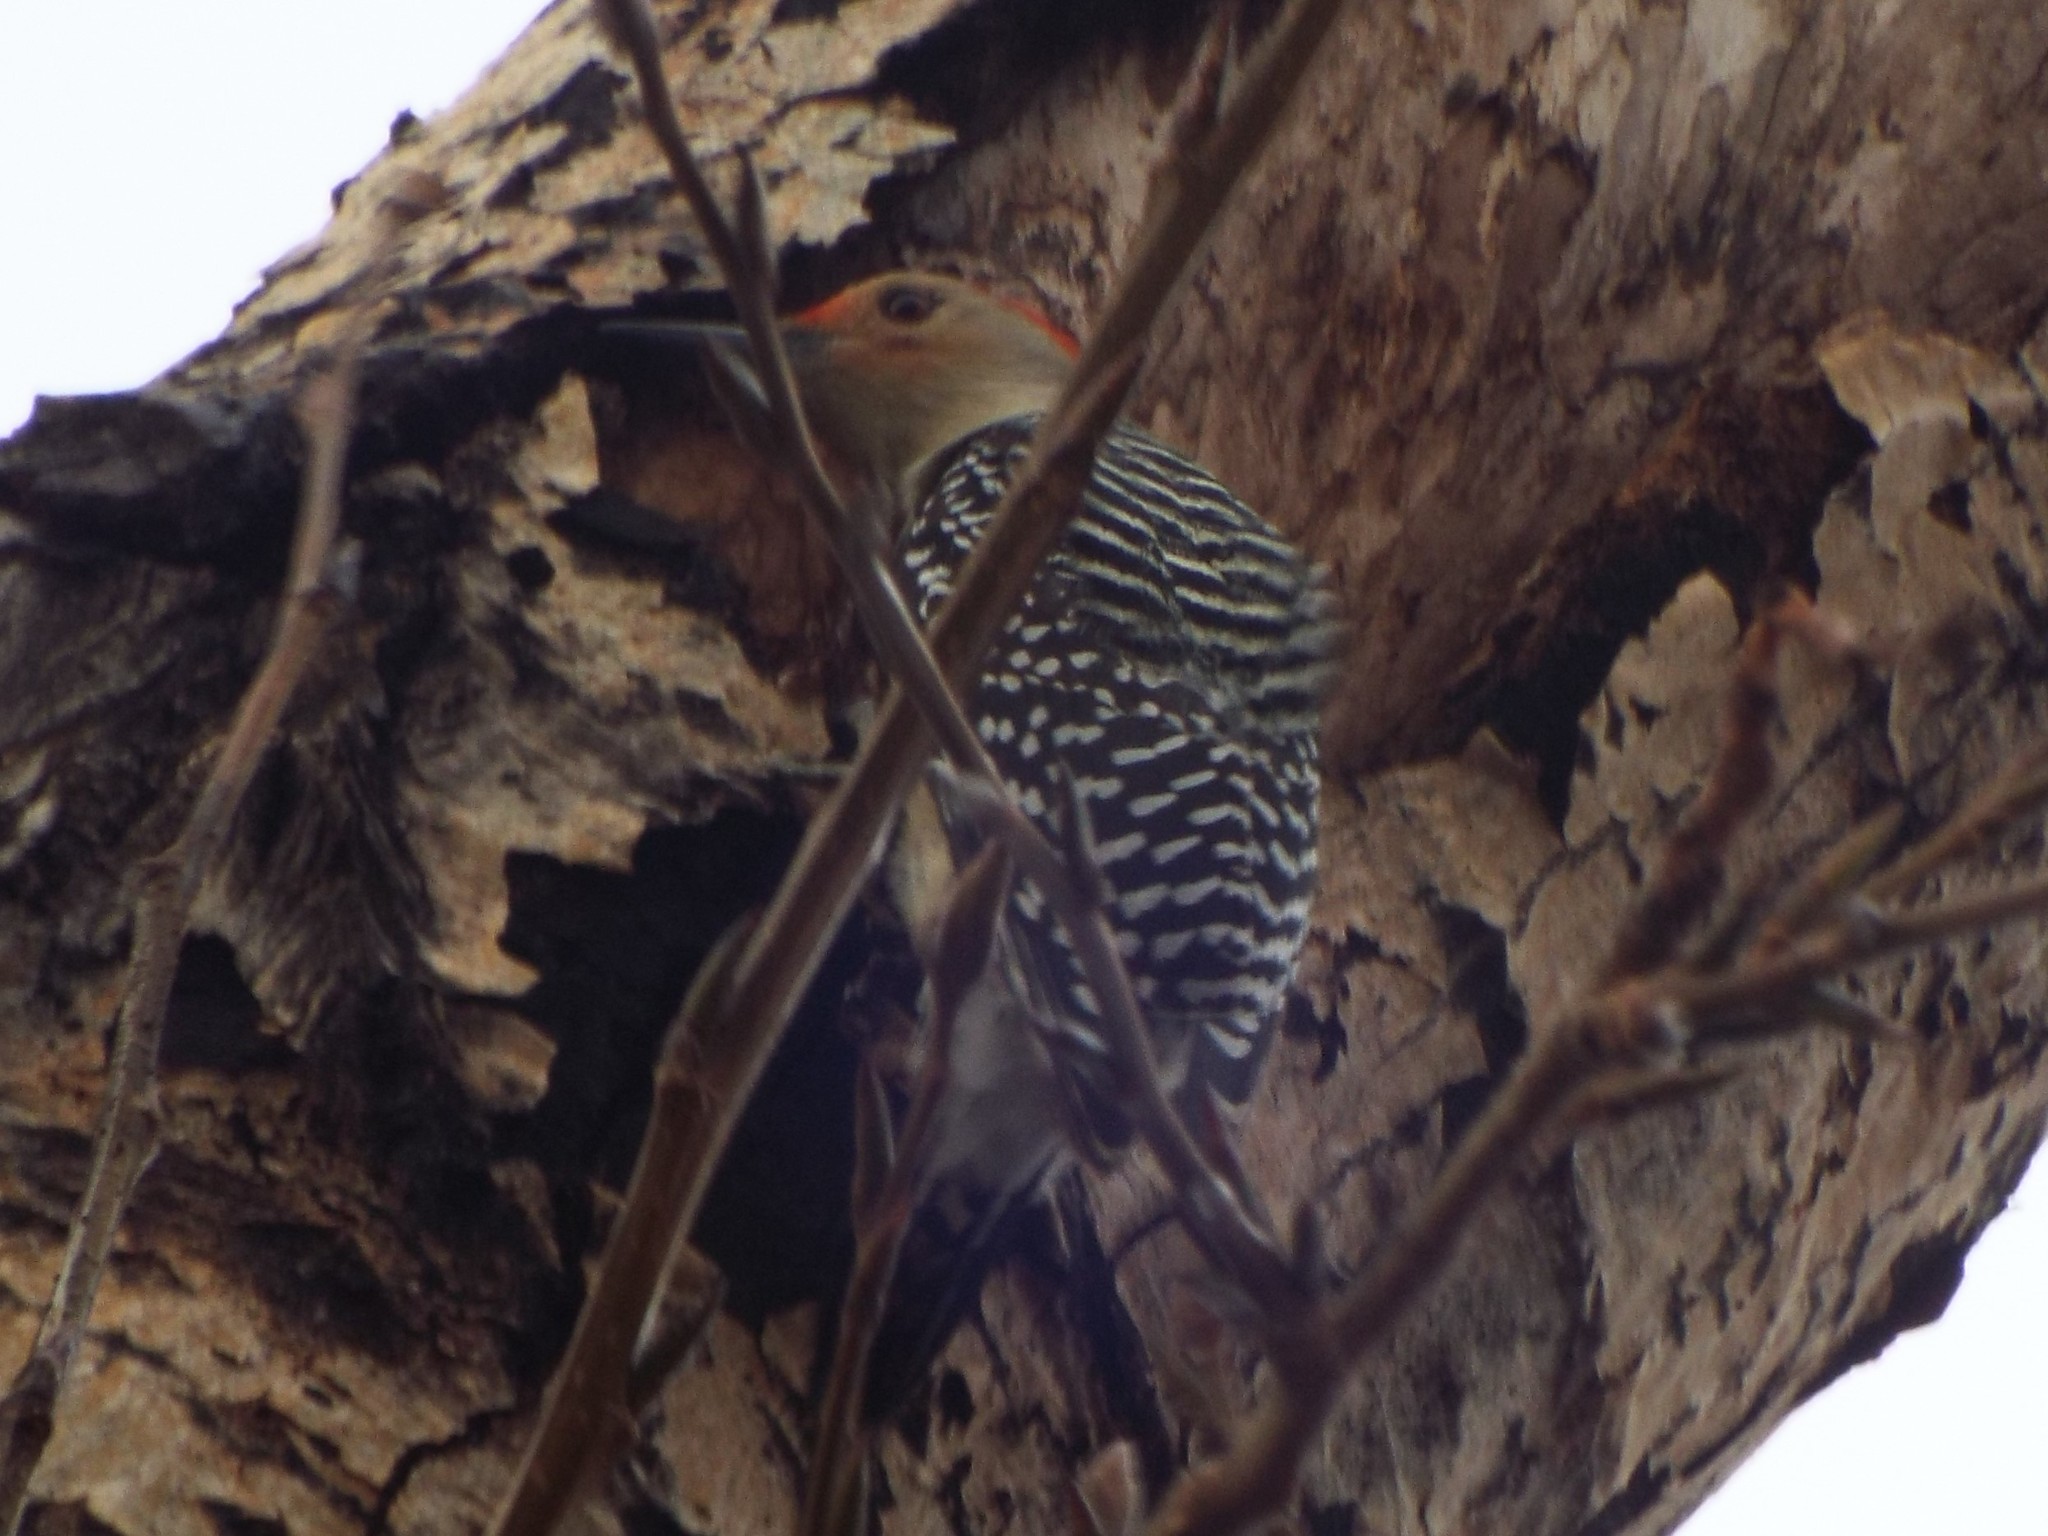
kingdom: Animalia
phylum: Chordata
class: Aves
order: Piciformes
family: Picidae
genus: Melanerpes
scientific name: Melanerpes carolinus
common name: Red-bellied woodpecker
